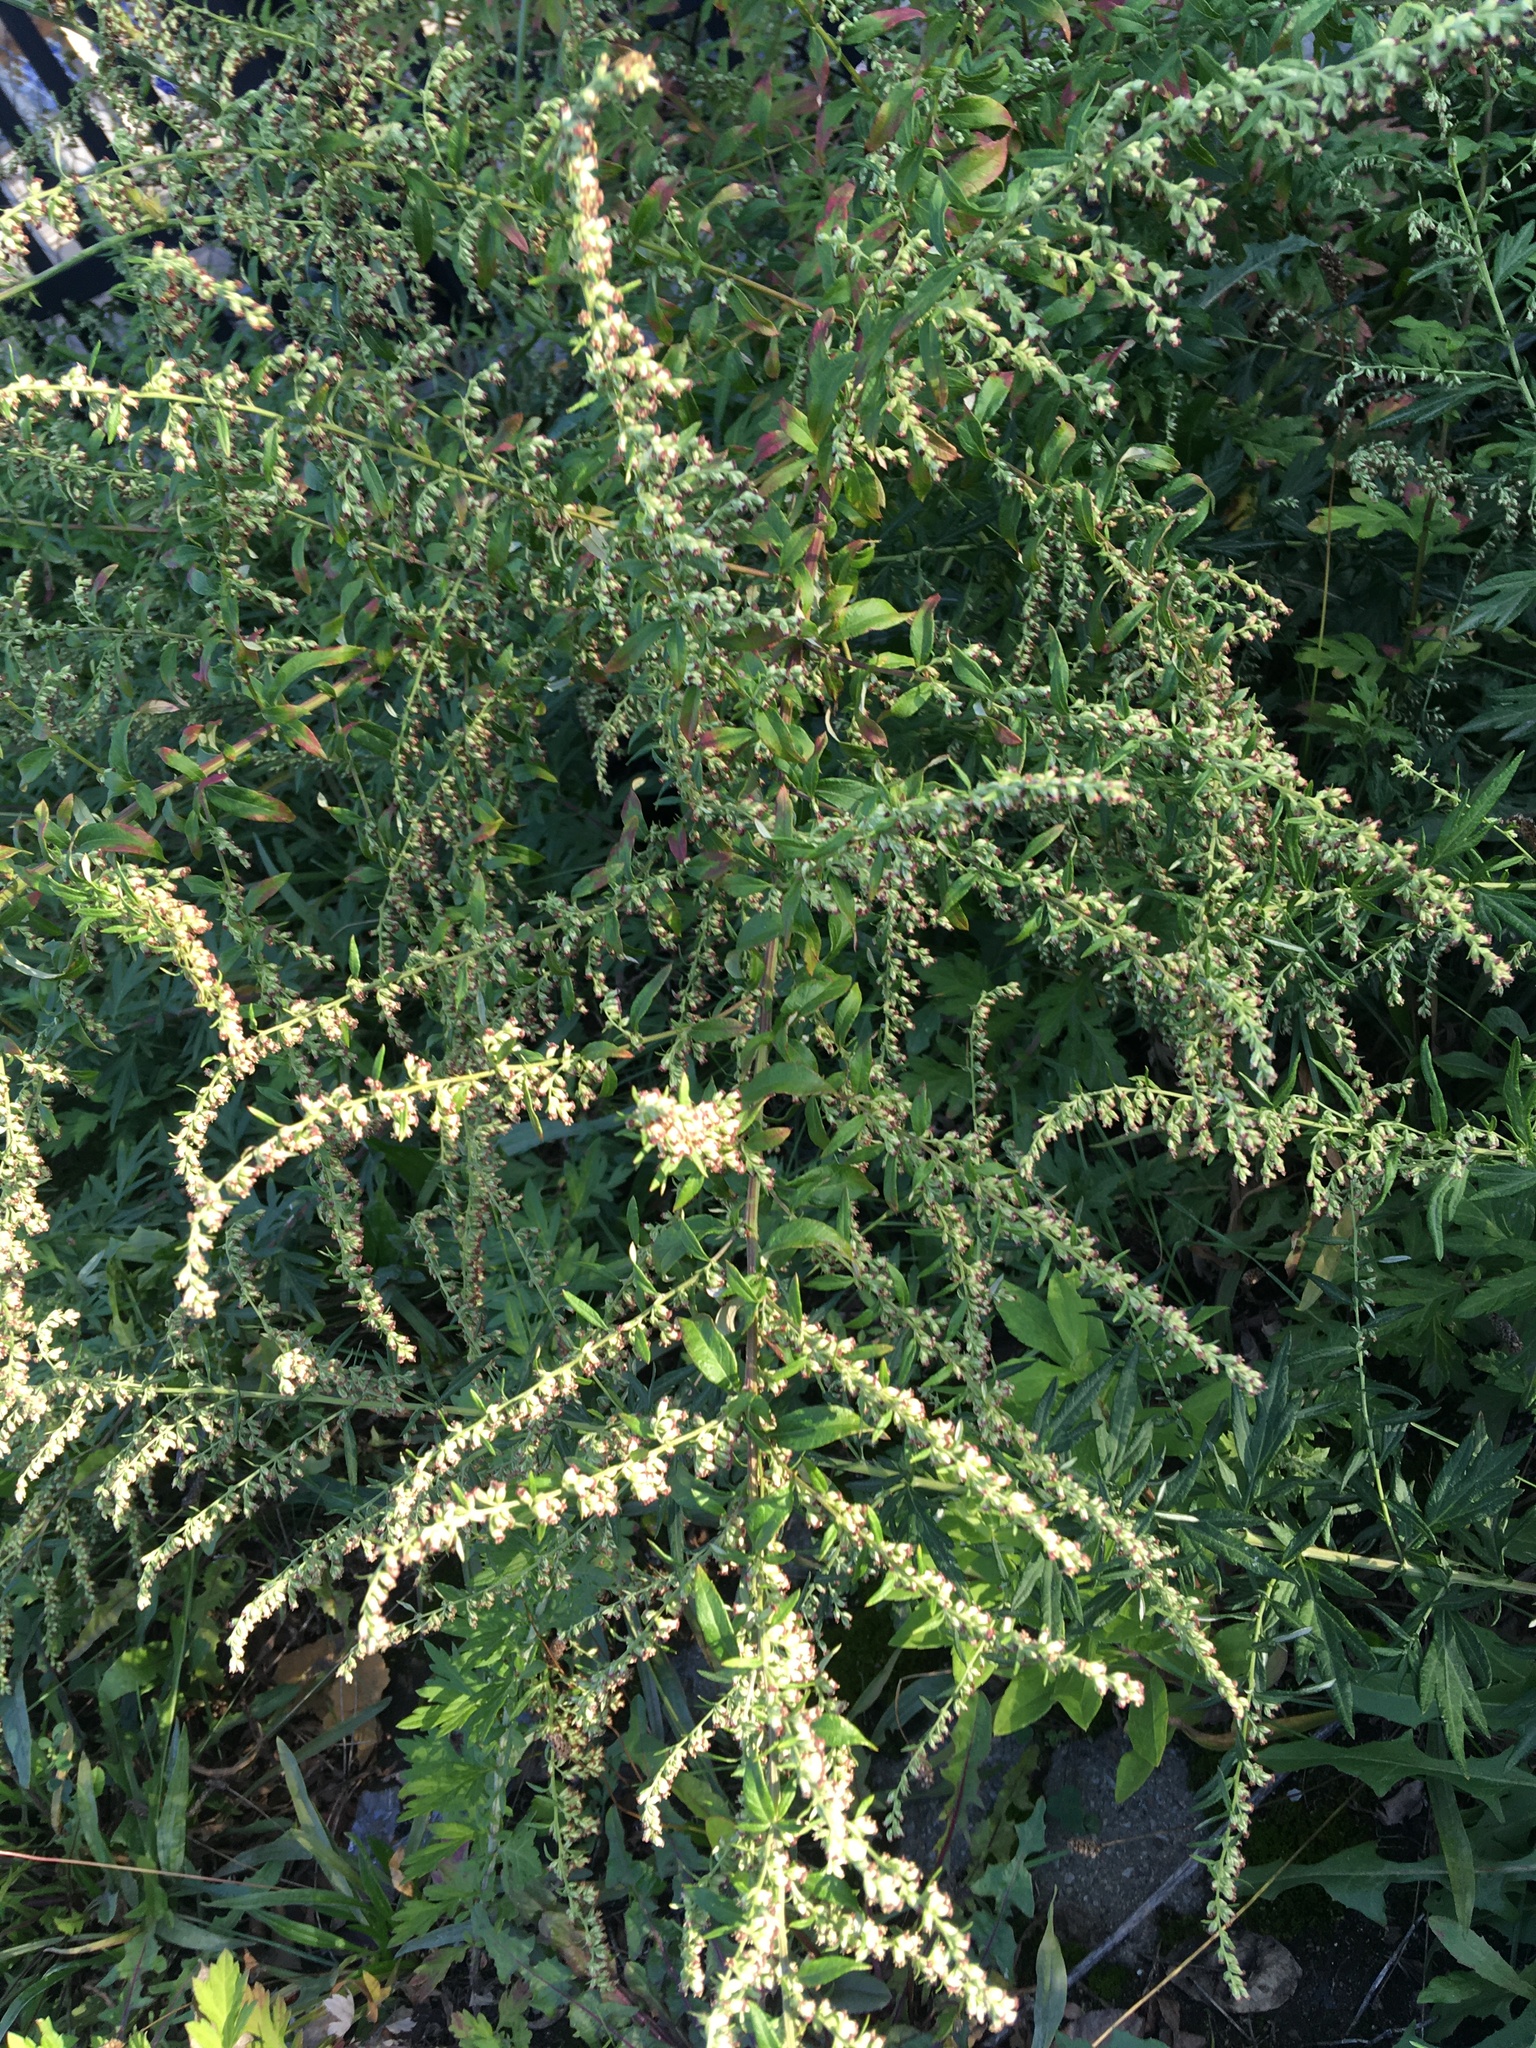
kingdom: Plantae
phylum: Tracheophyta
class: Magnoliopsida
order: Asterales
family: Asteraceae
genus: Artemisia
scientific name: Artemisia vulgaris
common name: Mugwort
